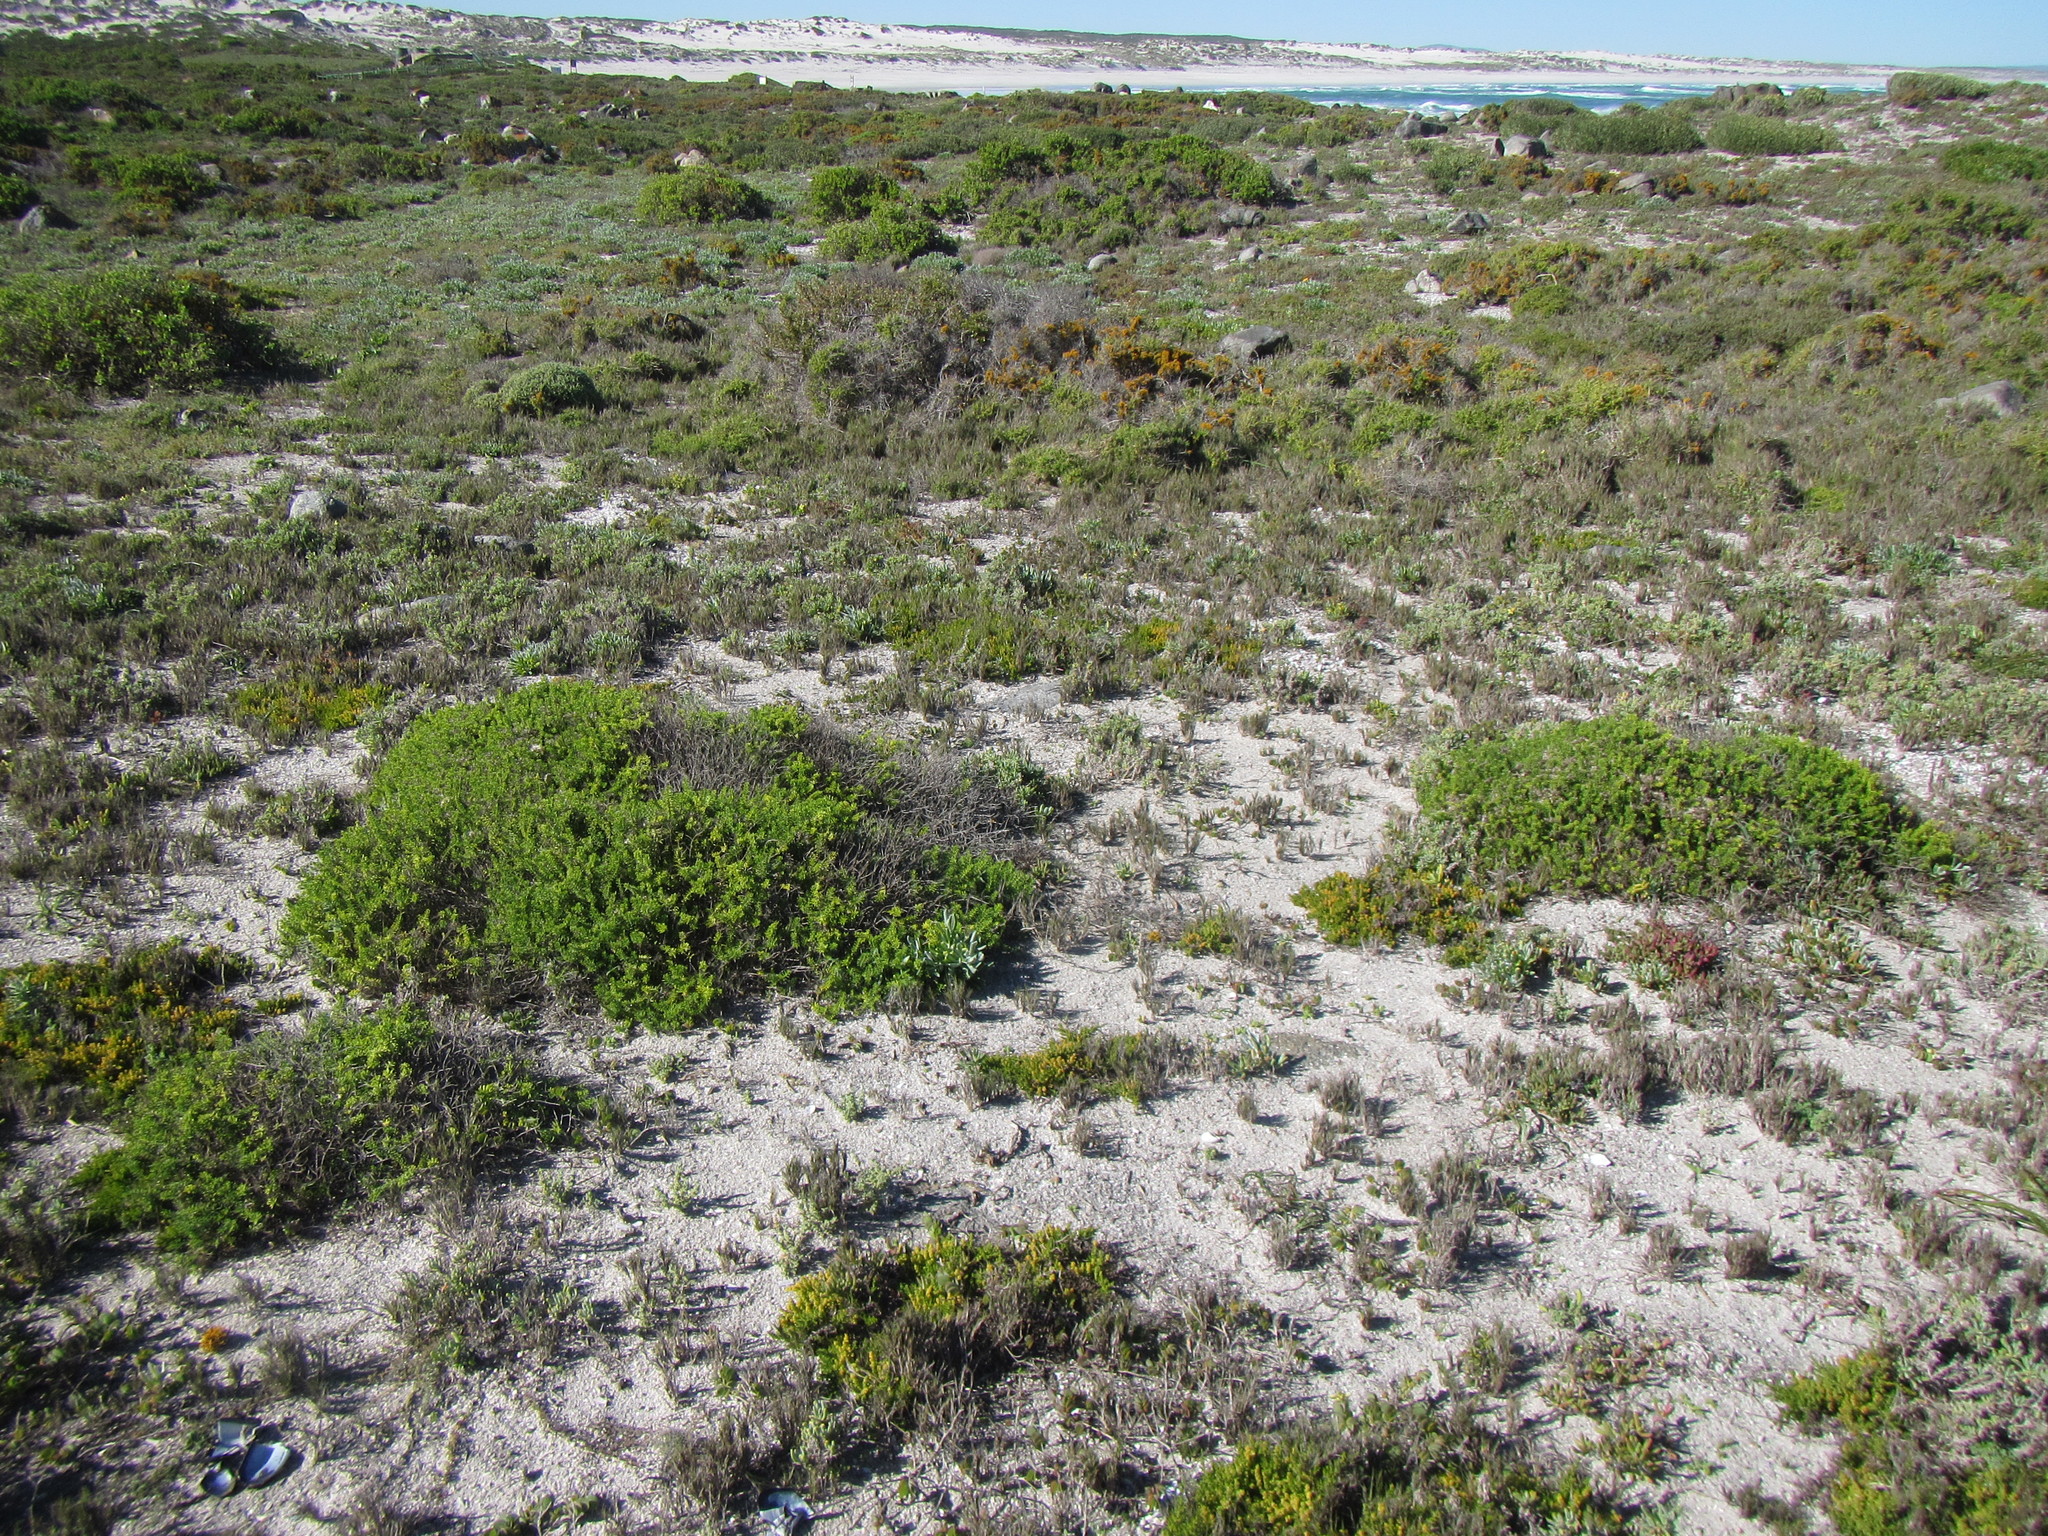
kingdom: Plantae
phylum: Tracheophyta
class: Magnoliopsida
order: Asterales
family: Asteraceae
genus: Pteronia
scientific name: Pteronia uncinata
